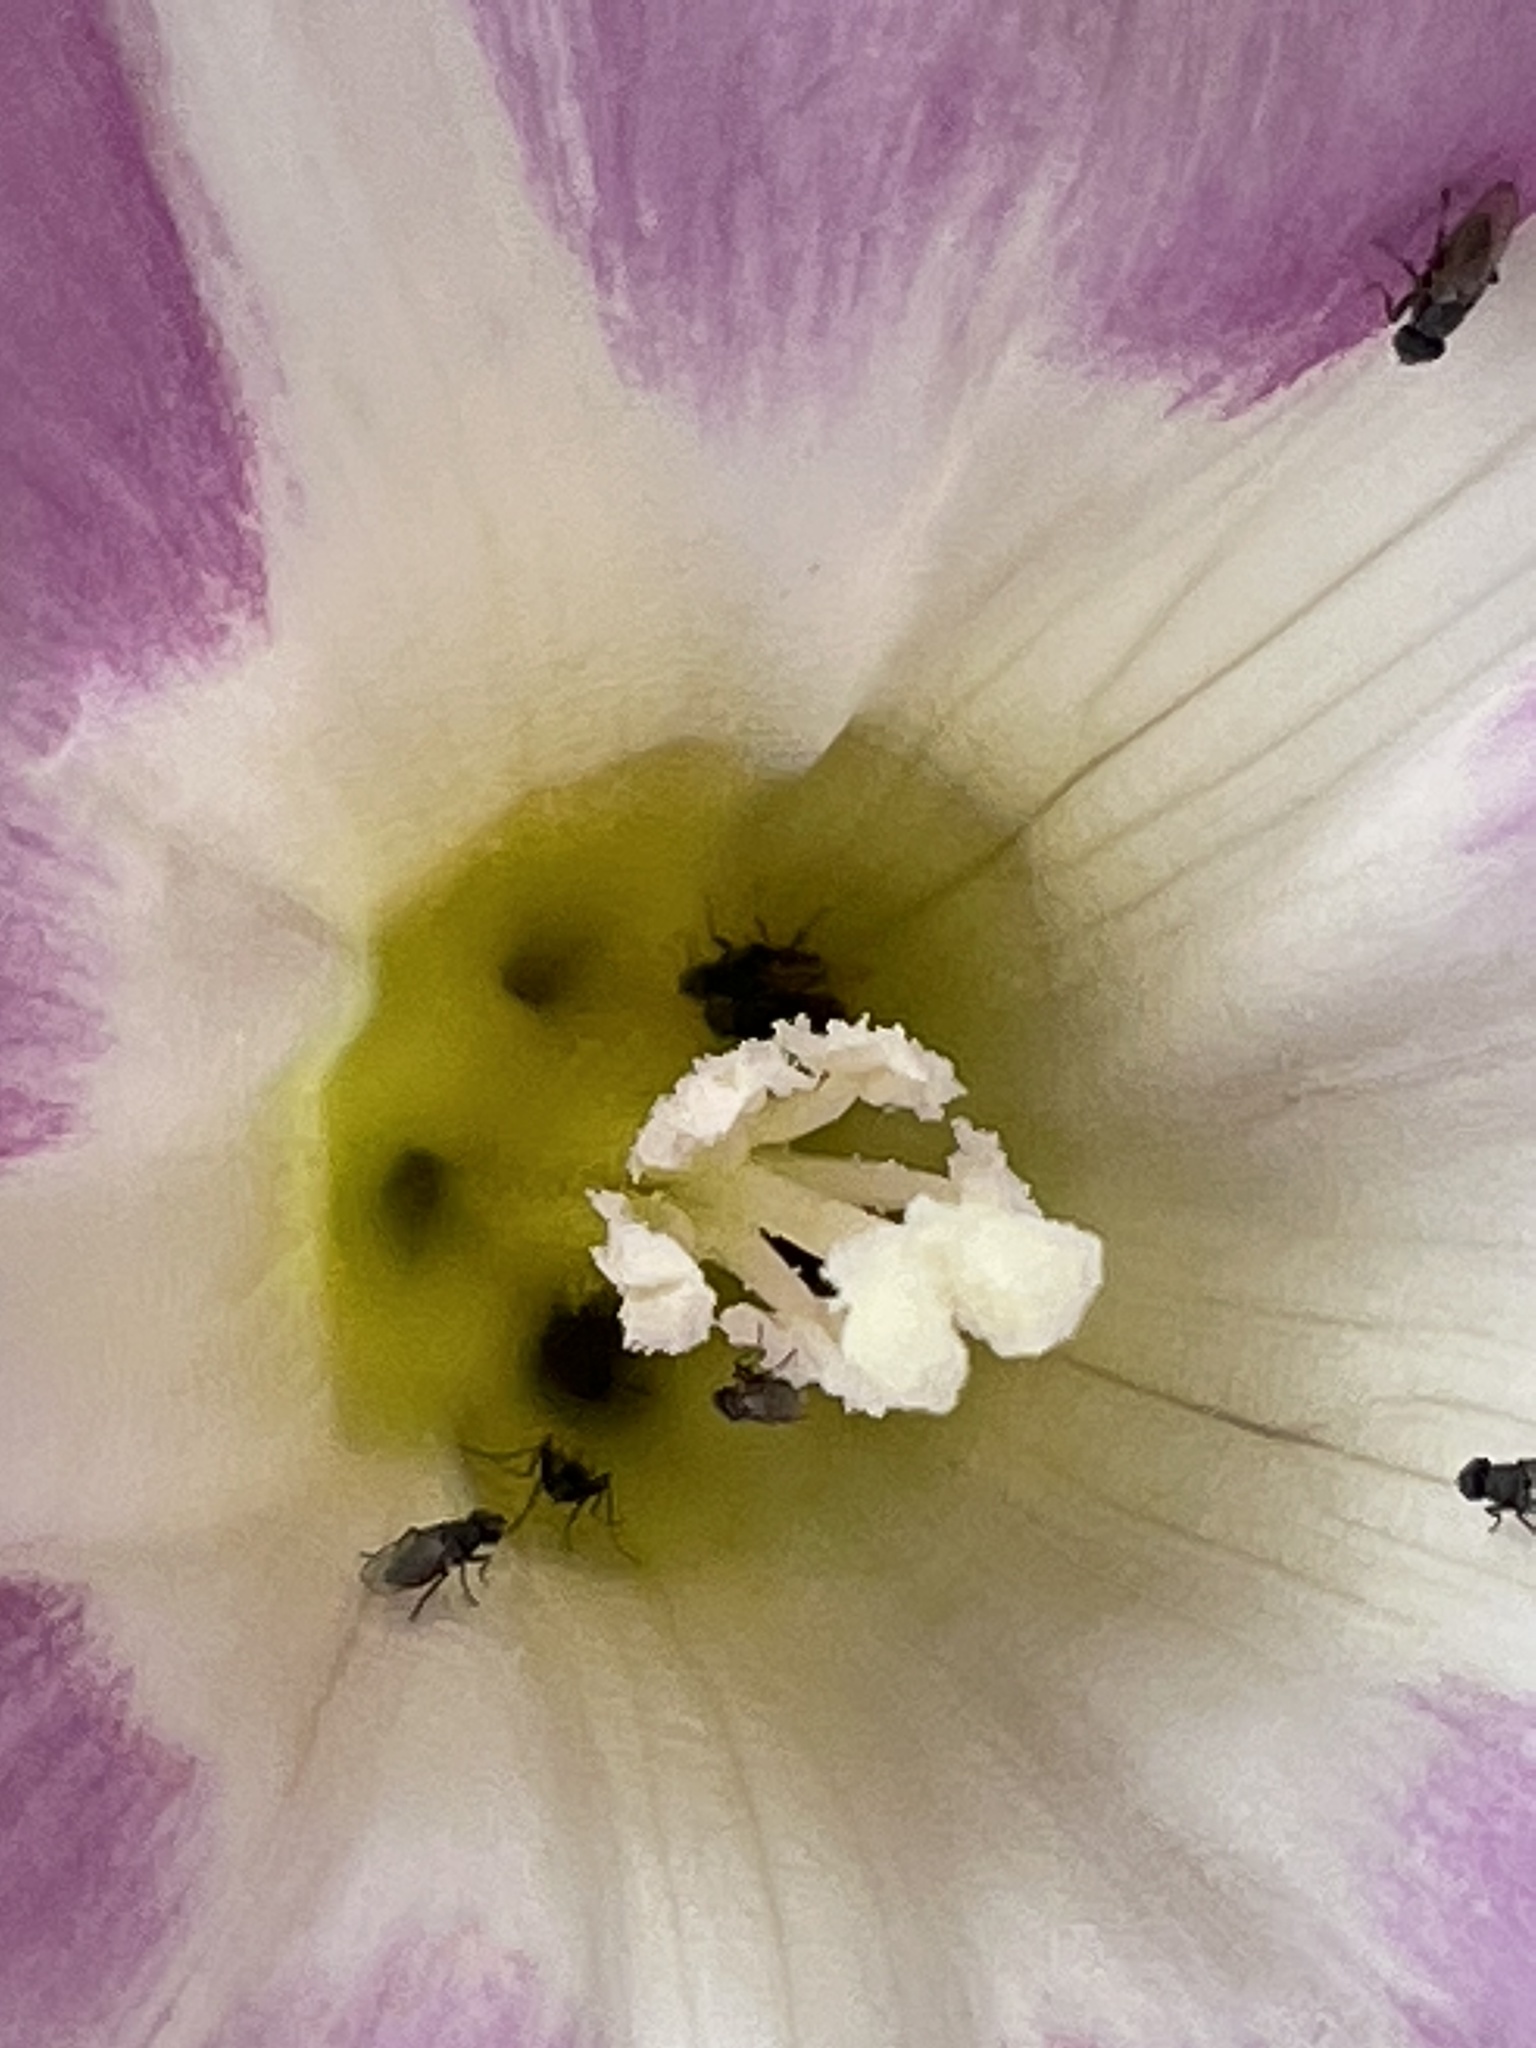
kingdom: Plantae
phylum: Tracheophyta
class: Magnoliopsida
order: Solanales
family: Convolvulaceae
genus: Calystegia
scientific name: Calystegia soldanella
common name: Sea bindweed
